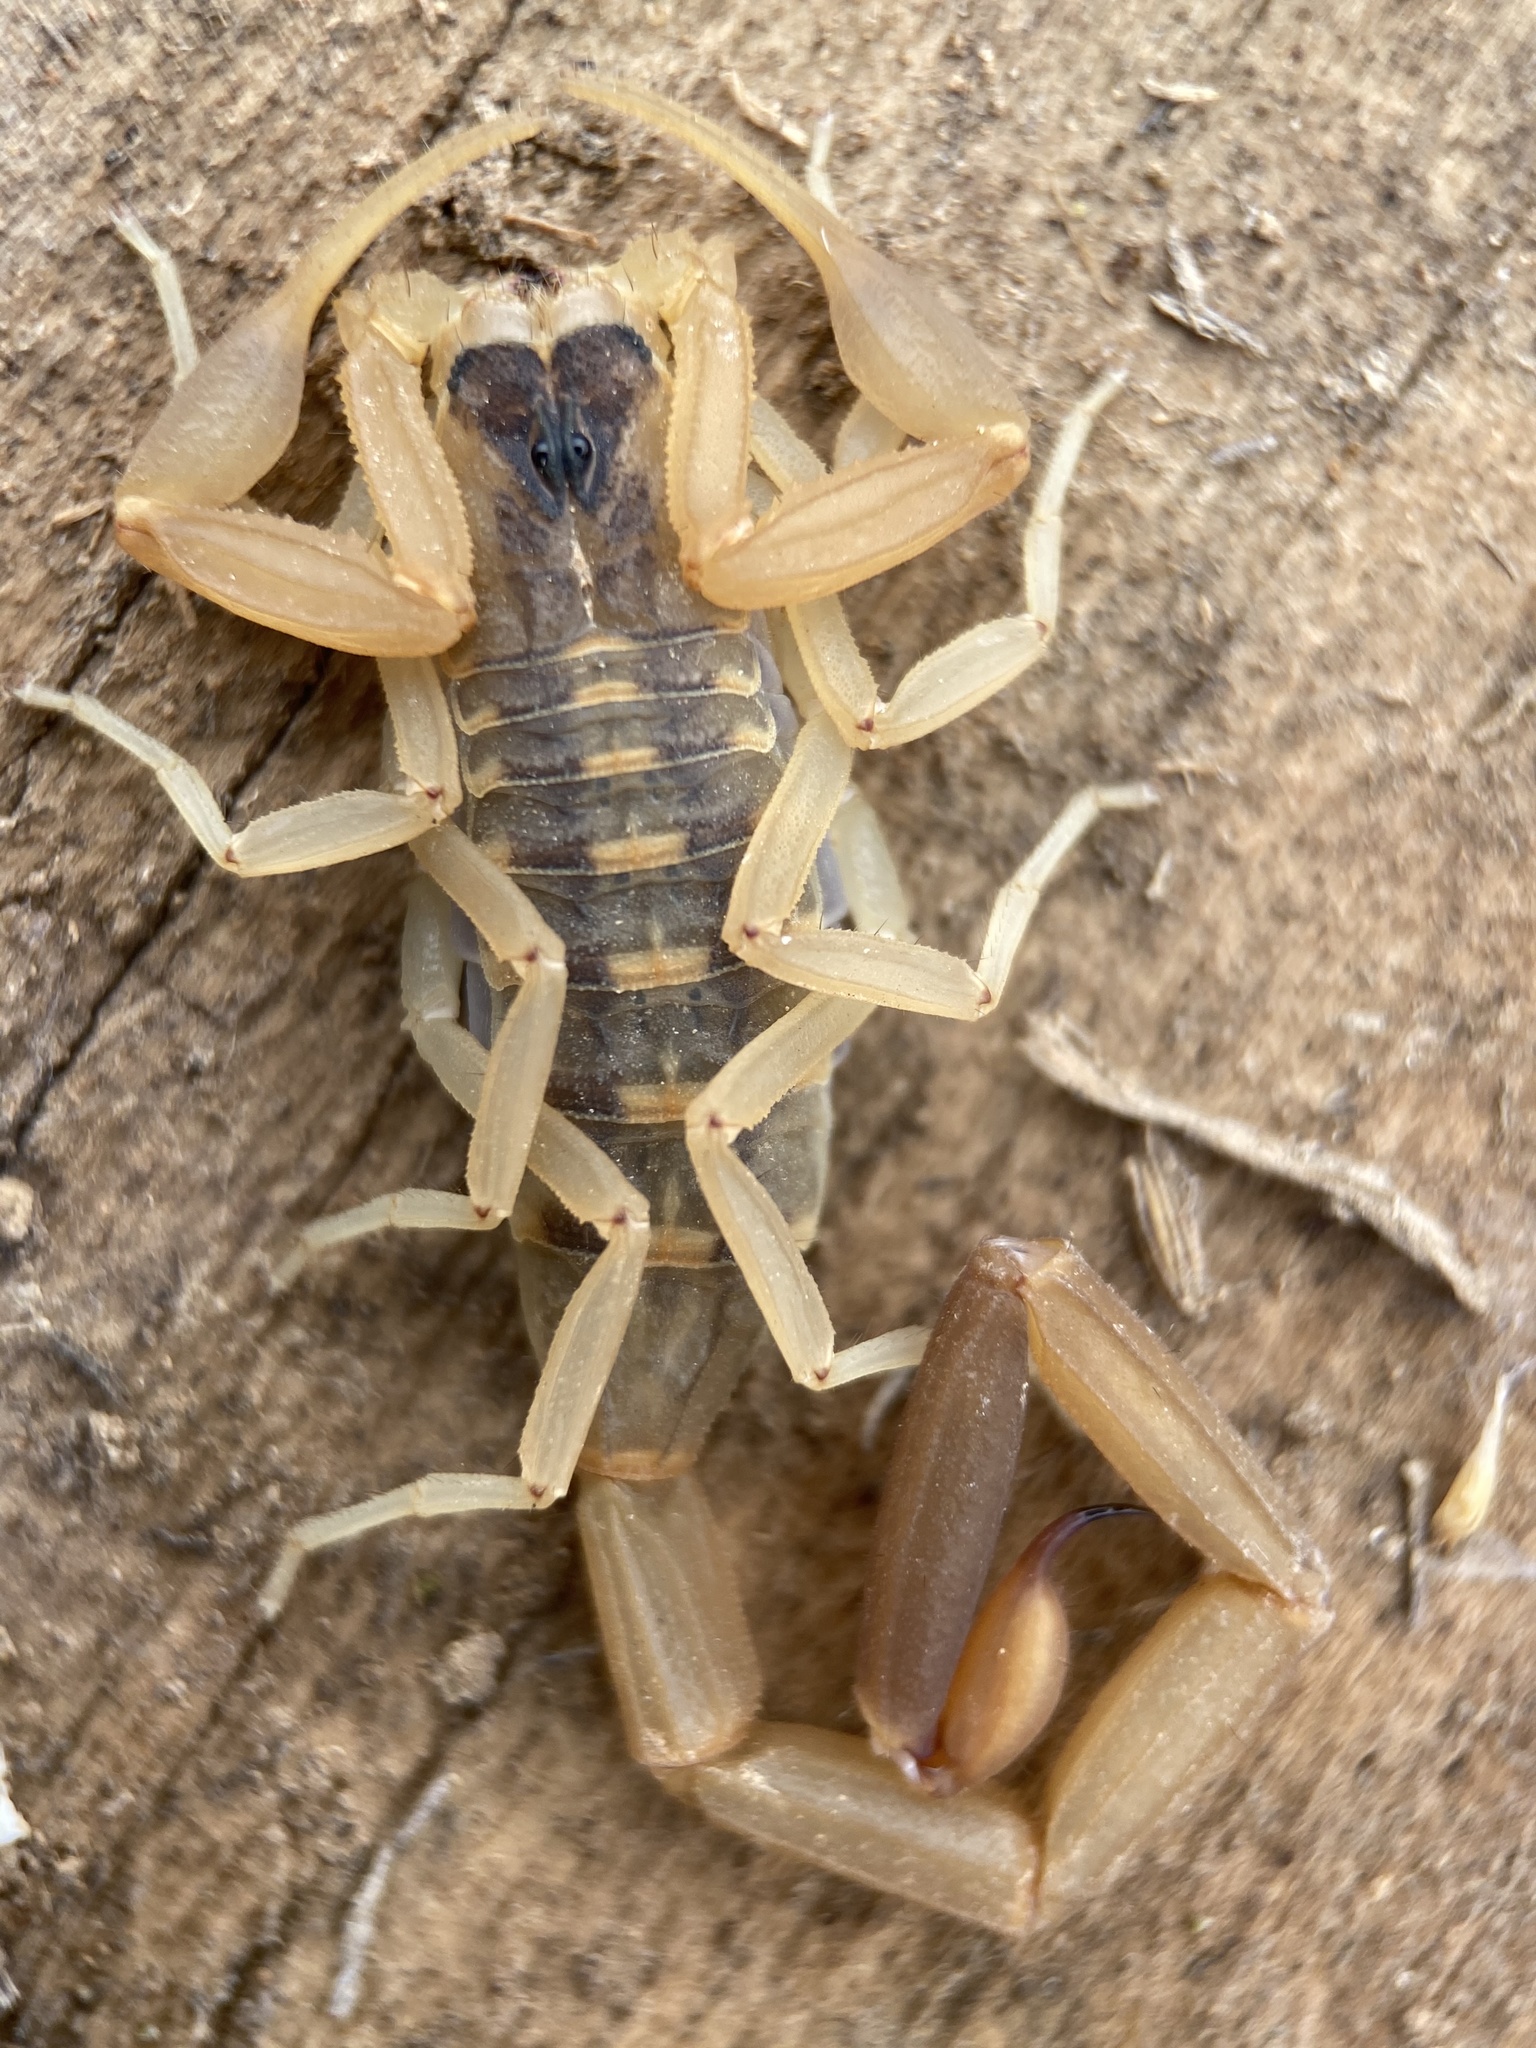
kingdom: Animalia
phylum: Arthropoda
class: Arachnida
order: Scorpiones
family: Buthidae
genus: Centruroides
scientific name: Centruroides vittatus
